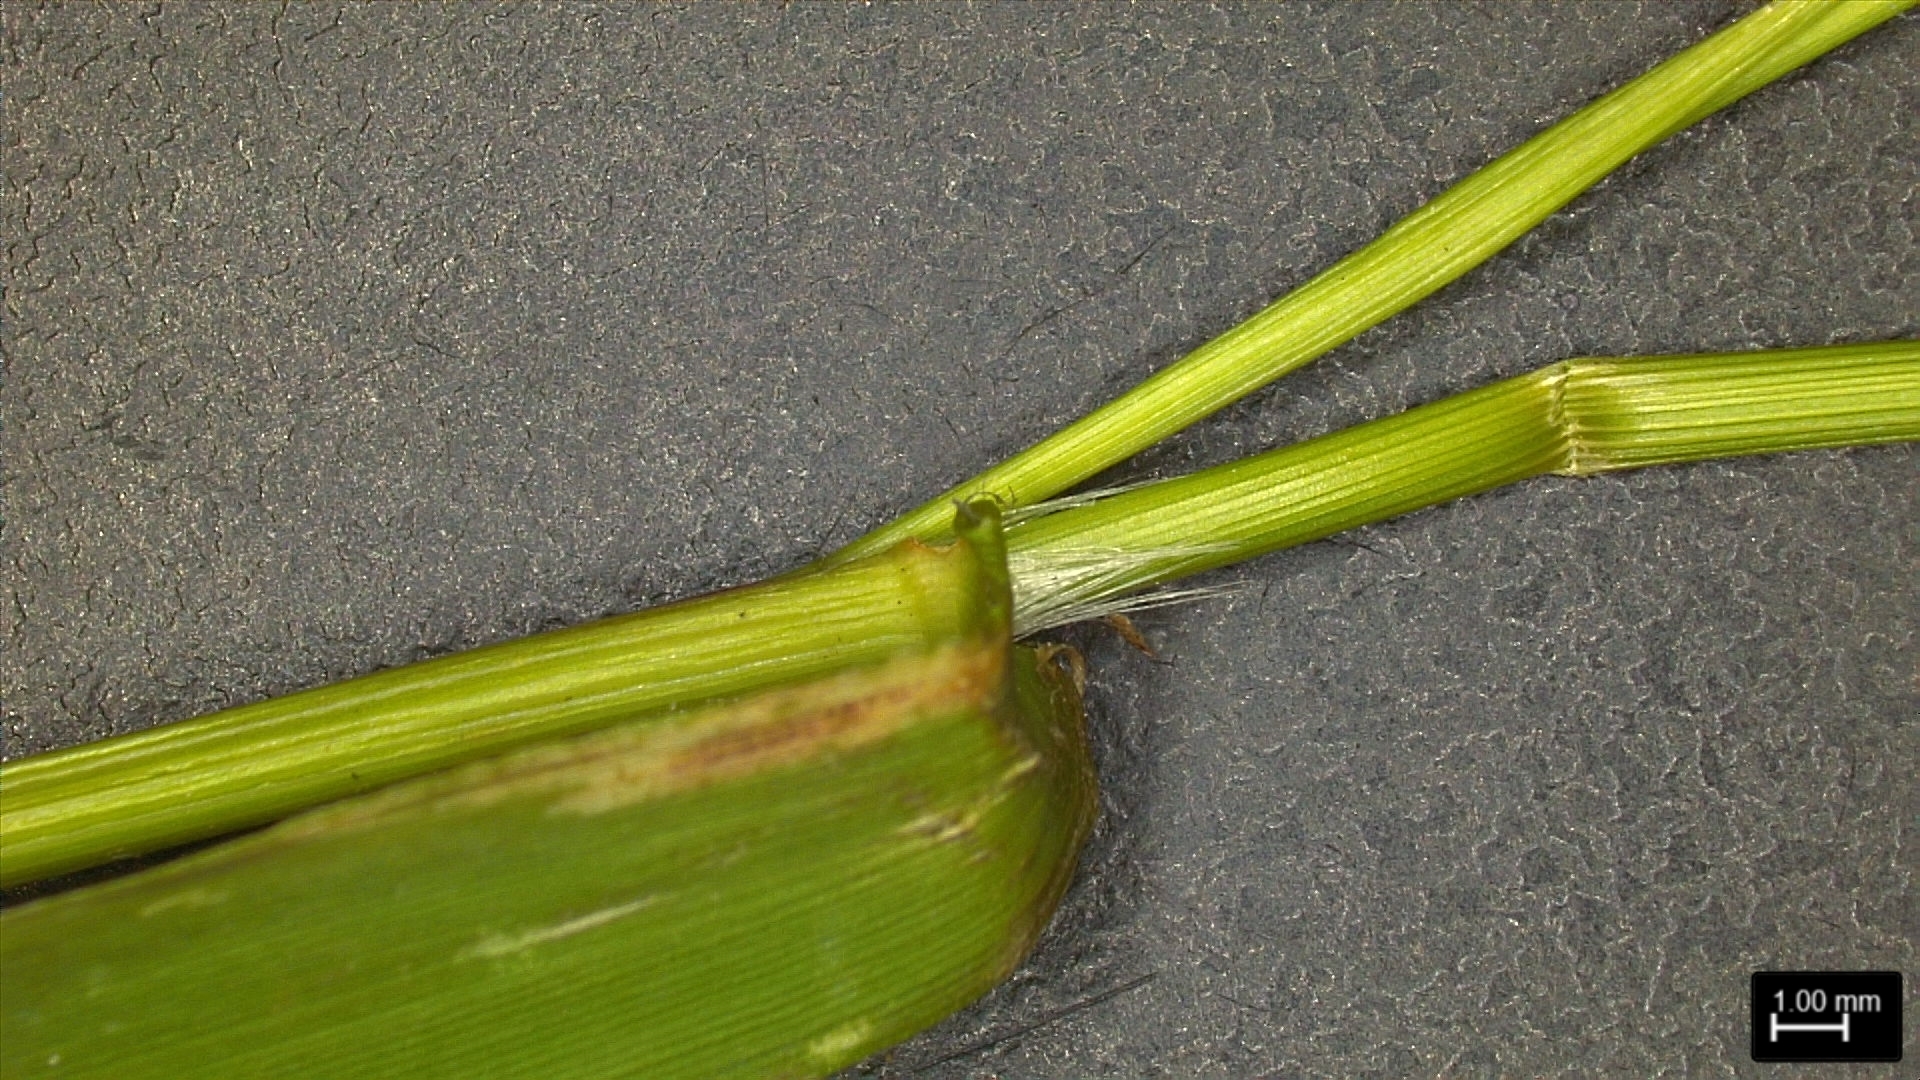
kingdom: Plantae
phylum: Tracheophyta
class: Liliopsida
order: Poales
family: Poaceae
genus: Dichanthelium
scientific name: Dichanthelium lindheimeri
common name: Lindheimer's panicgrass
